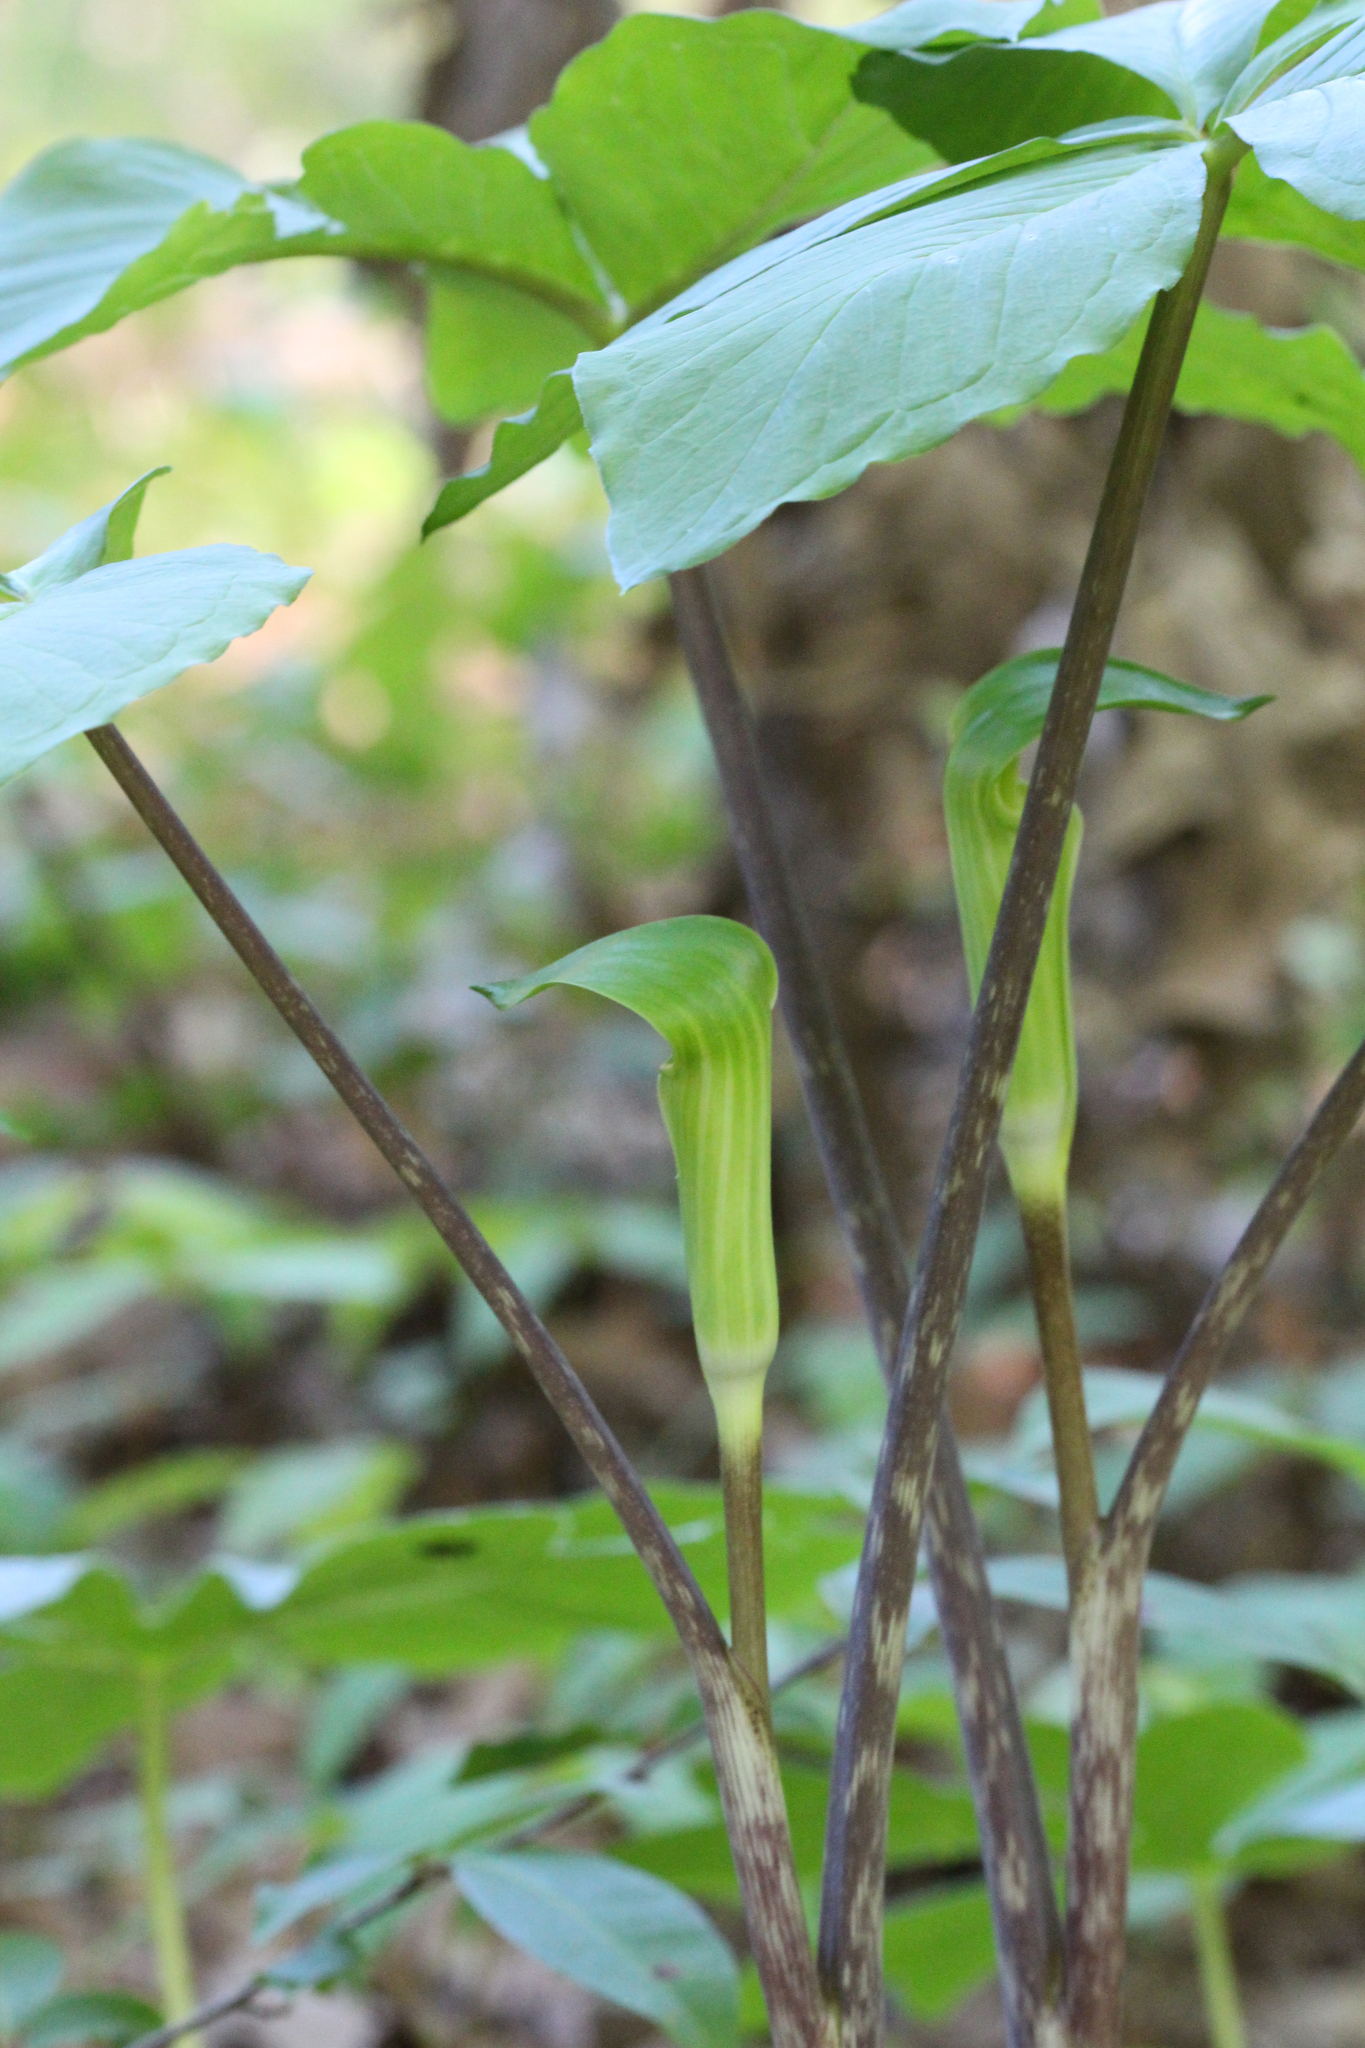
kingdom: Plantae
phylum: Tracheophyta
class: Liliopsida
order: Alismatales
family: Araceae
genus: Arisaema
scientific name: Arisaema quinatum
